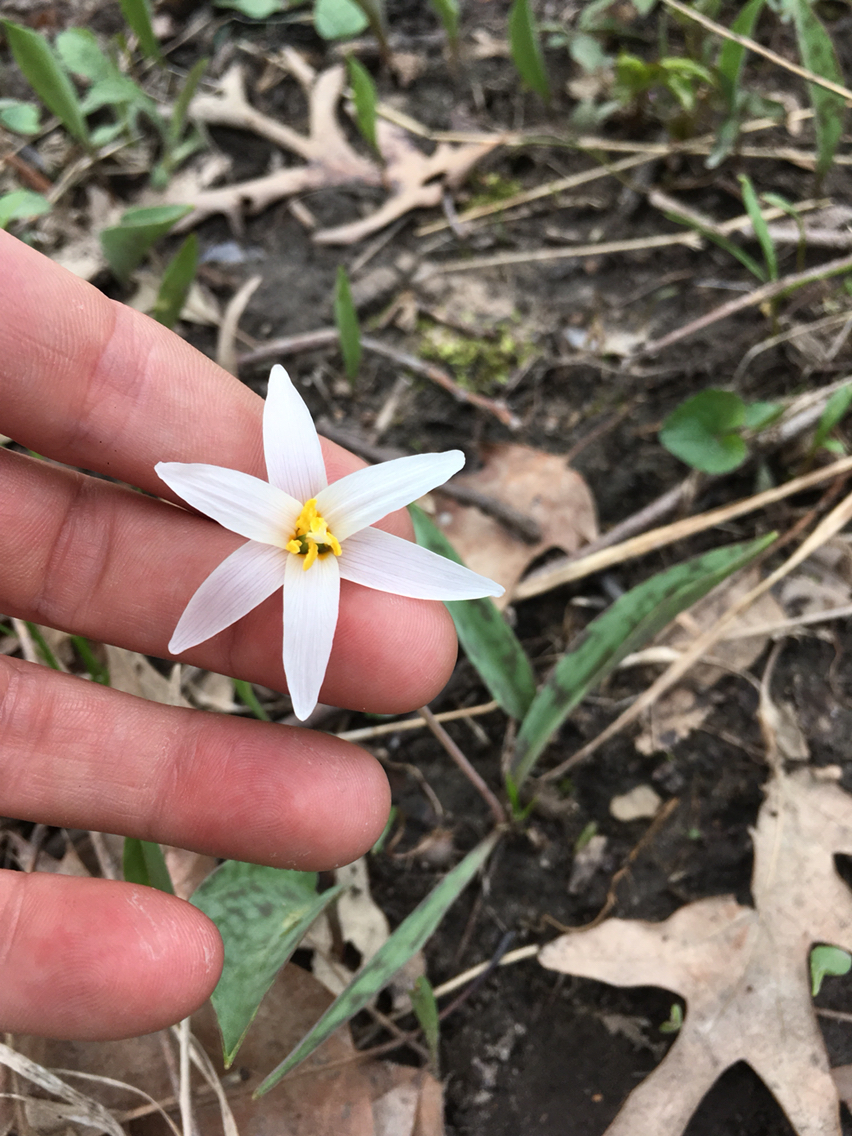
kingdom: Plantae
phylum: Tracheophyta
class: Liliopsida
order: Liliales
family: Liliaceae
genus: Erythronium
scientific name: Erythronium albidum
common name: White trout-lily
